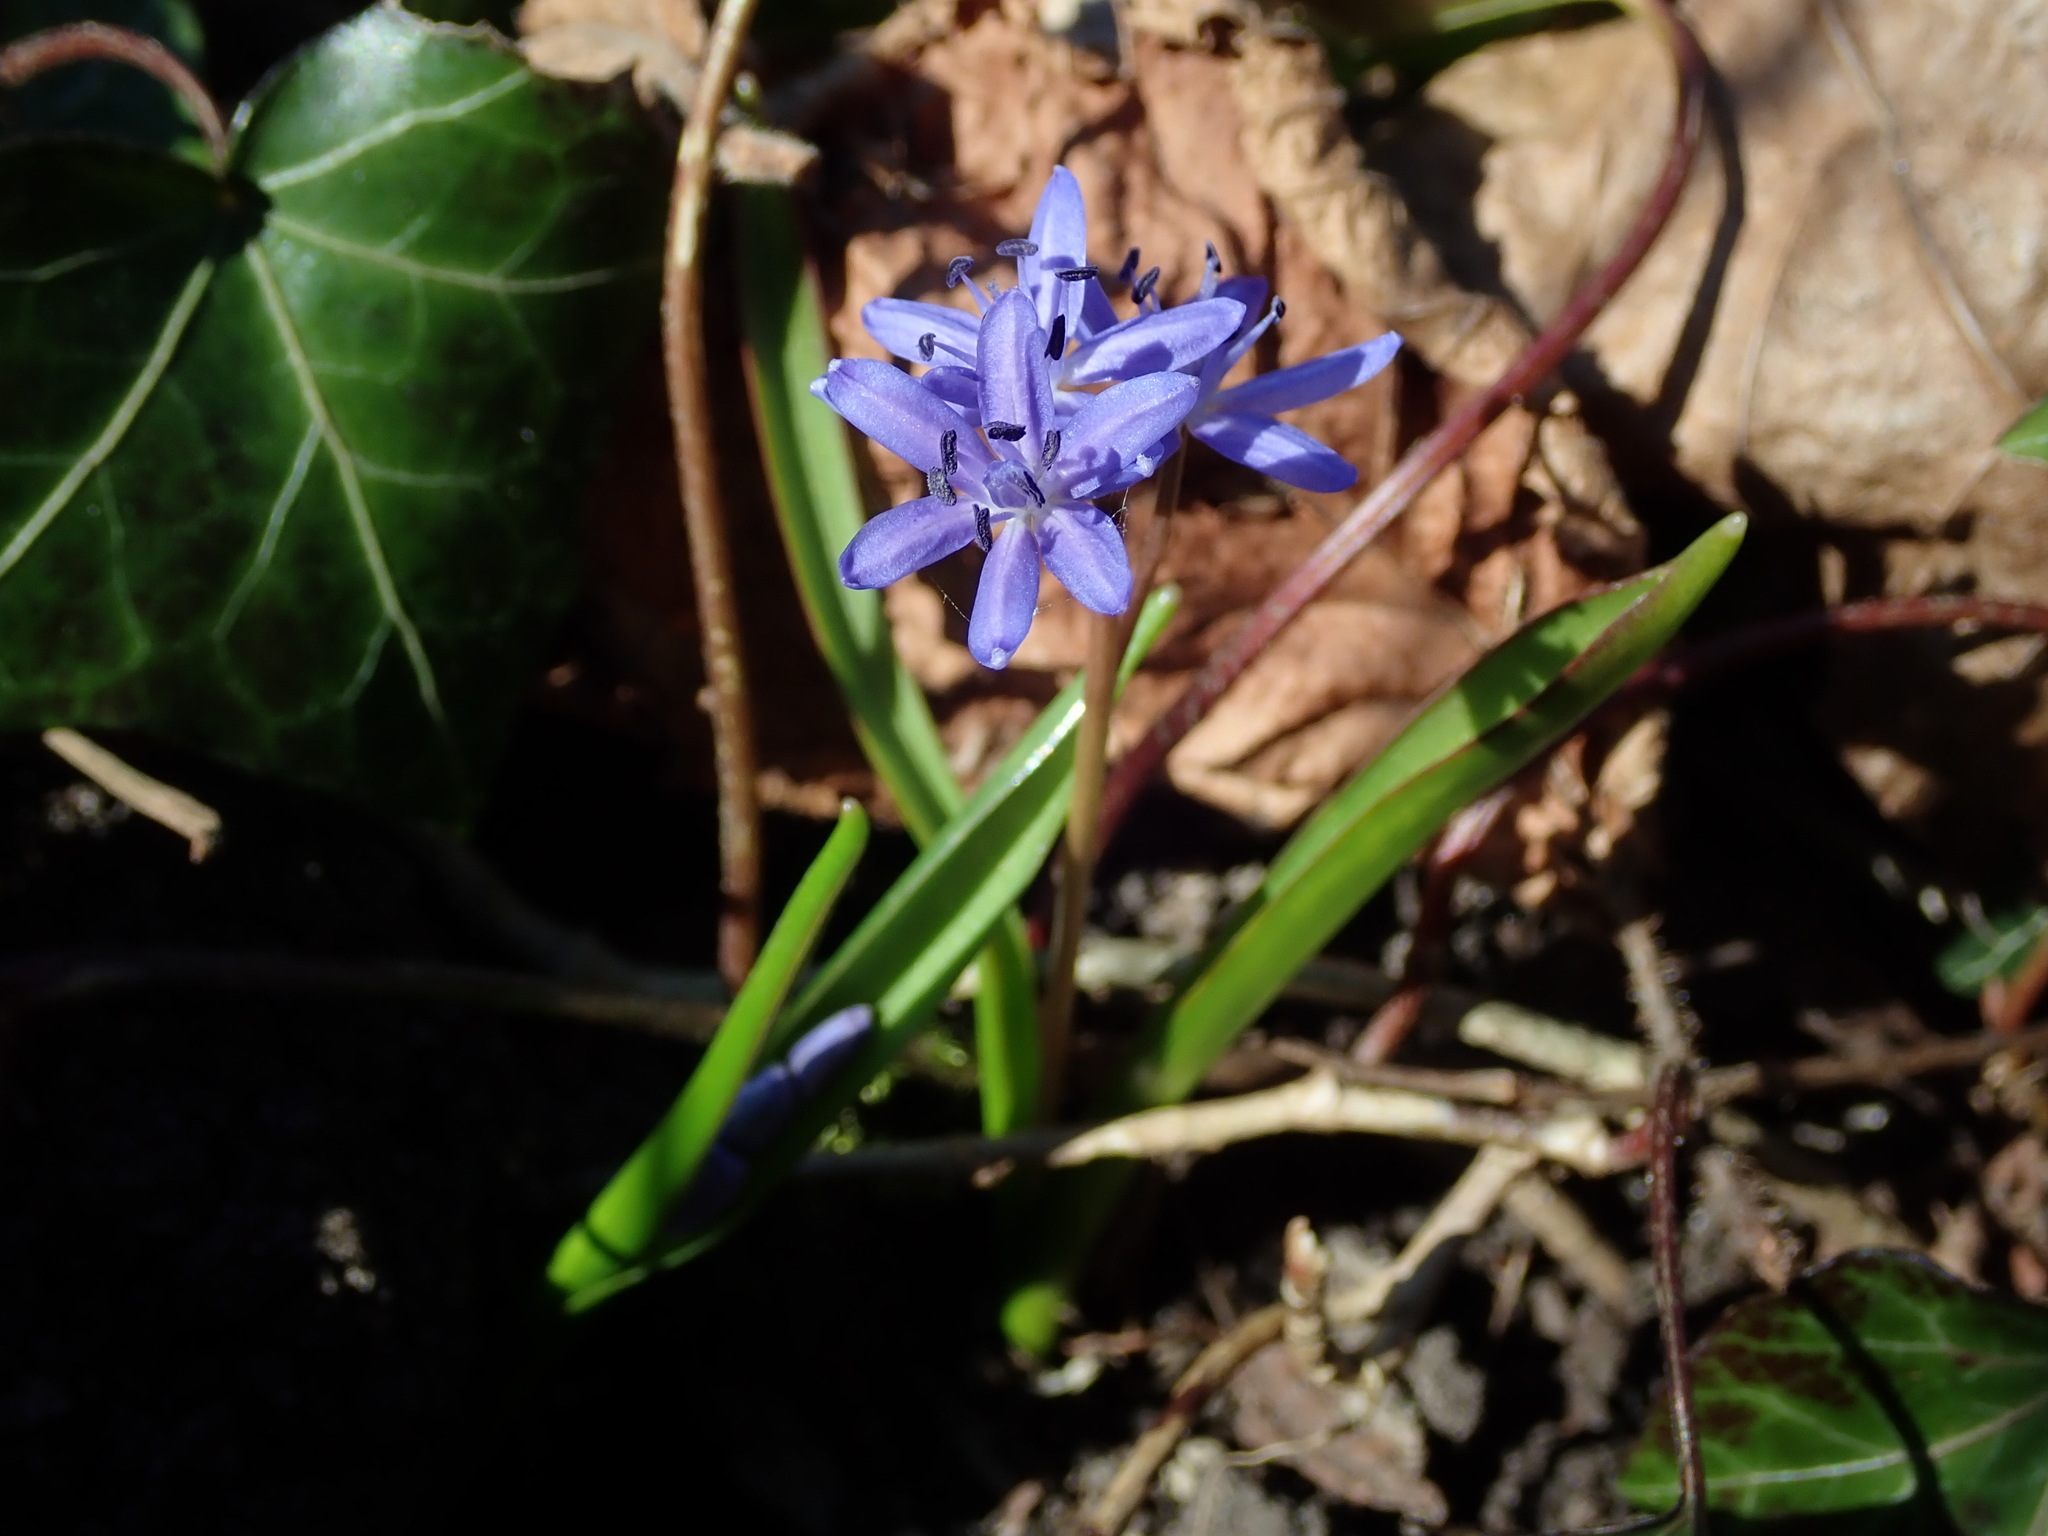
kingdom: Plantae
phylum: Tracheophyta
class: Liliopsida
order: Asparagales
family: Asparagaceae
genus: Scilla
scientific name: Scilla bifolia
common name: Alpine squill
